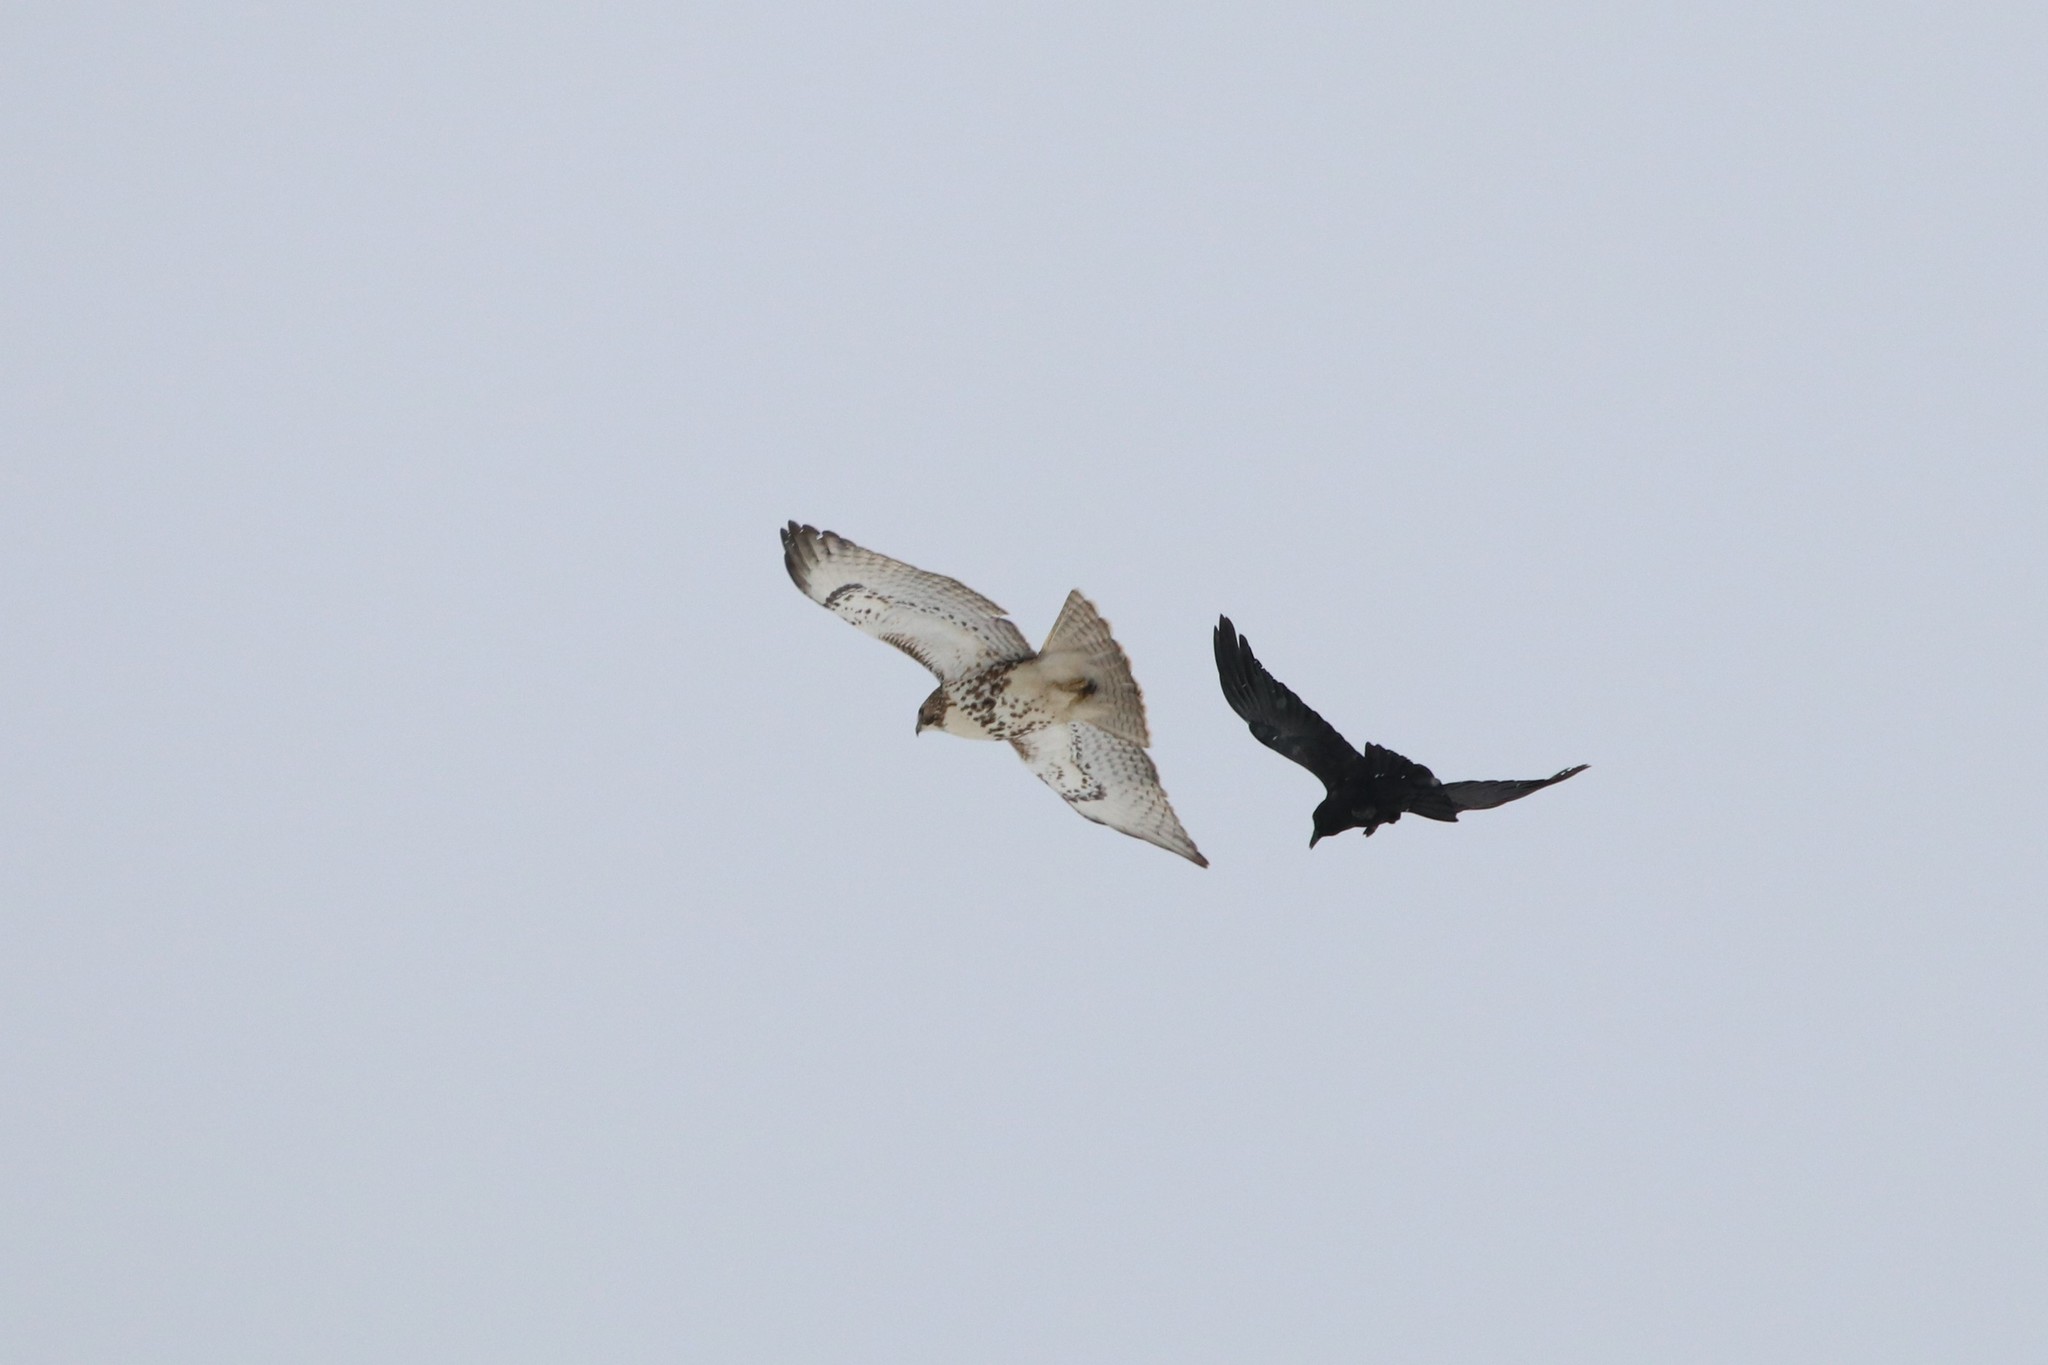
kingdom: Animalia
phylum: Chordata
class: Aves
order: Accipitriformes
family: Accipitridae
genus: Buteo
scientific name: Buteo jamaicensis
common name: Red-tailed hawk
